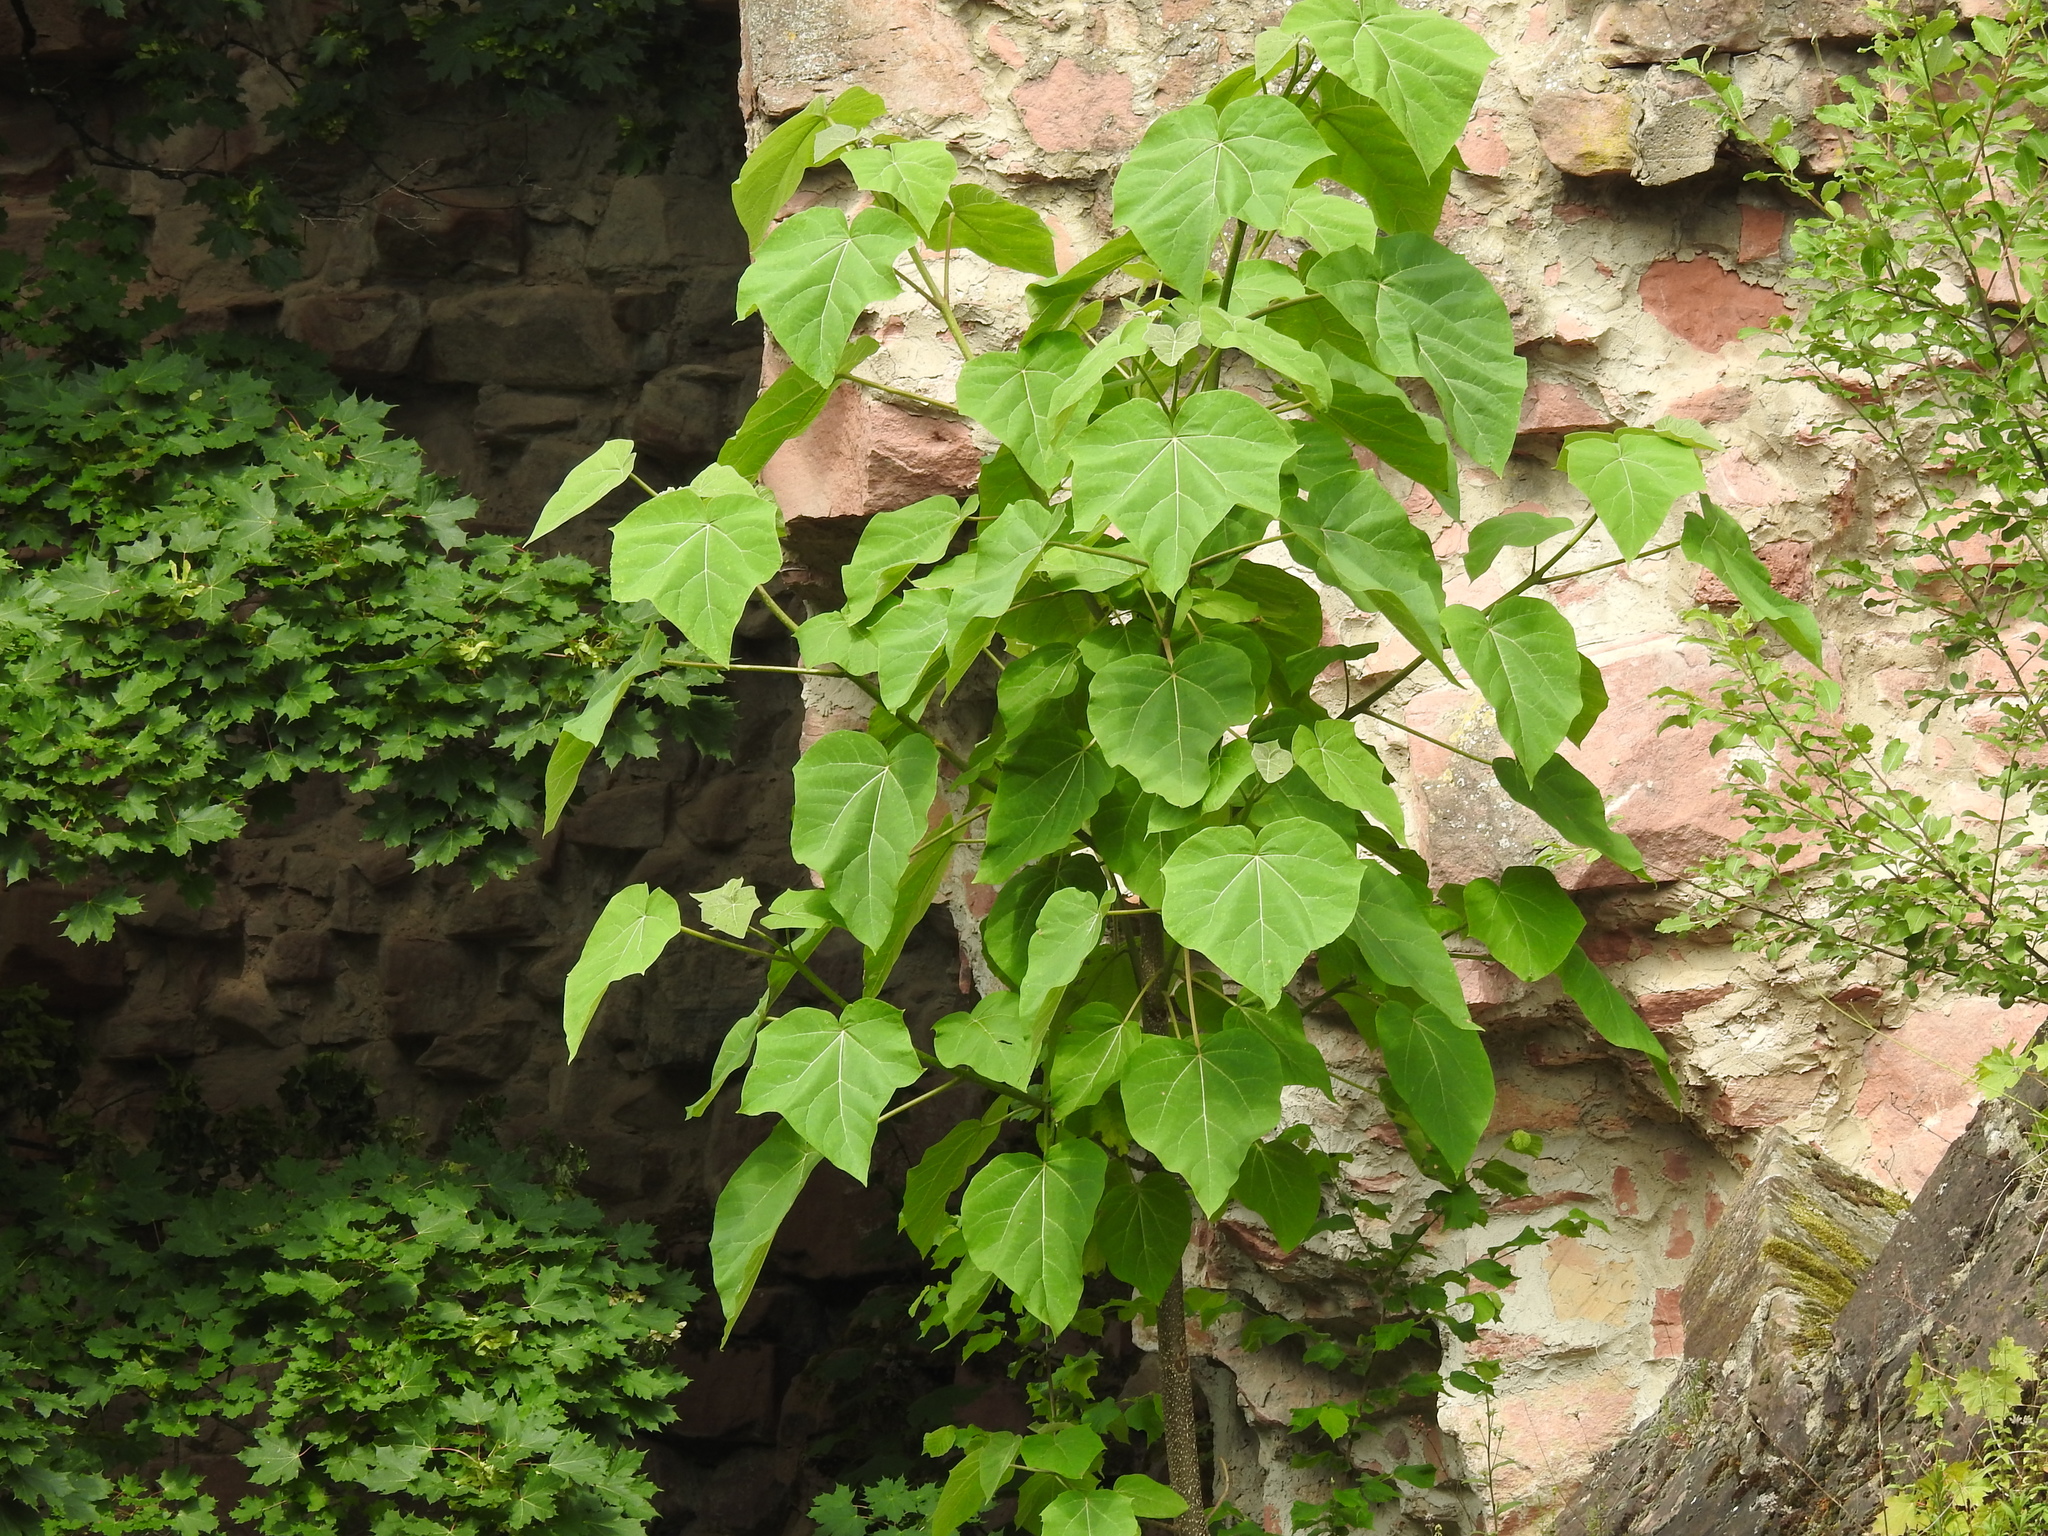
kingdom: Plantae
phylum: Tracheophyta
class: Magnoliopsida
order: Lamiales
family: Paulowniaceae
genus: Paulownia
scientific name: Paulownia tomentosa
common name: Foxglove-tree
